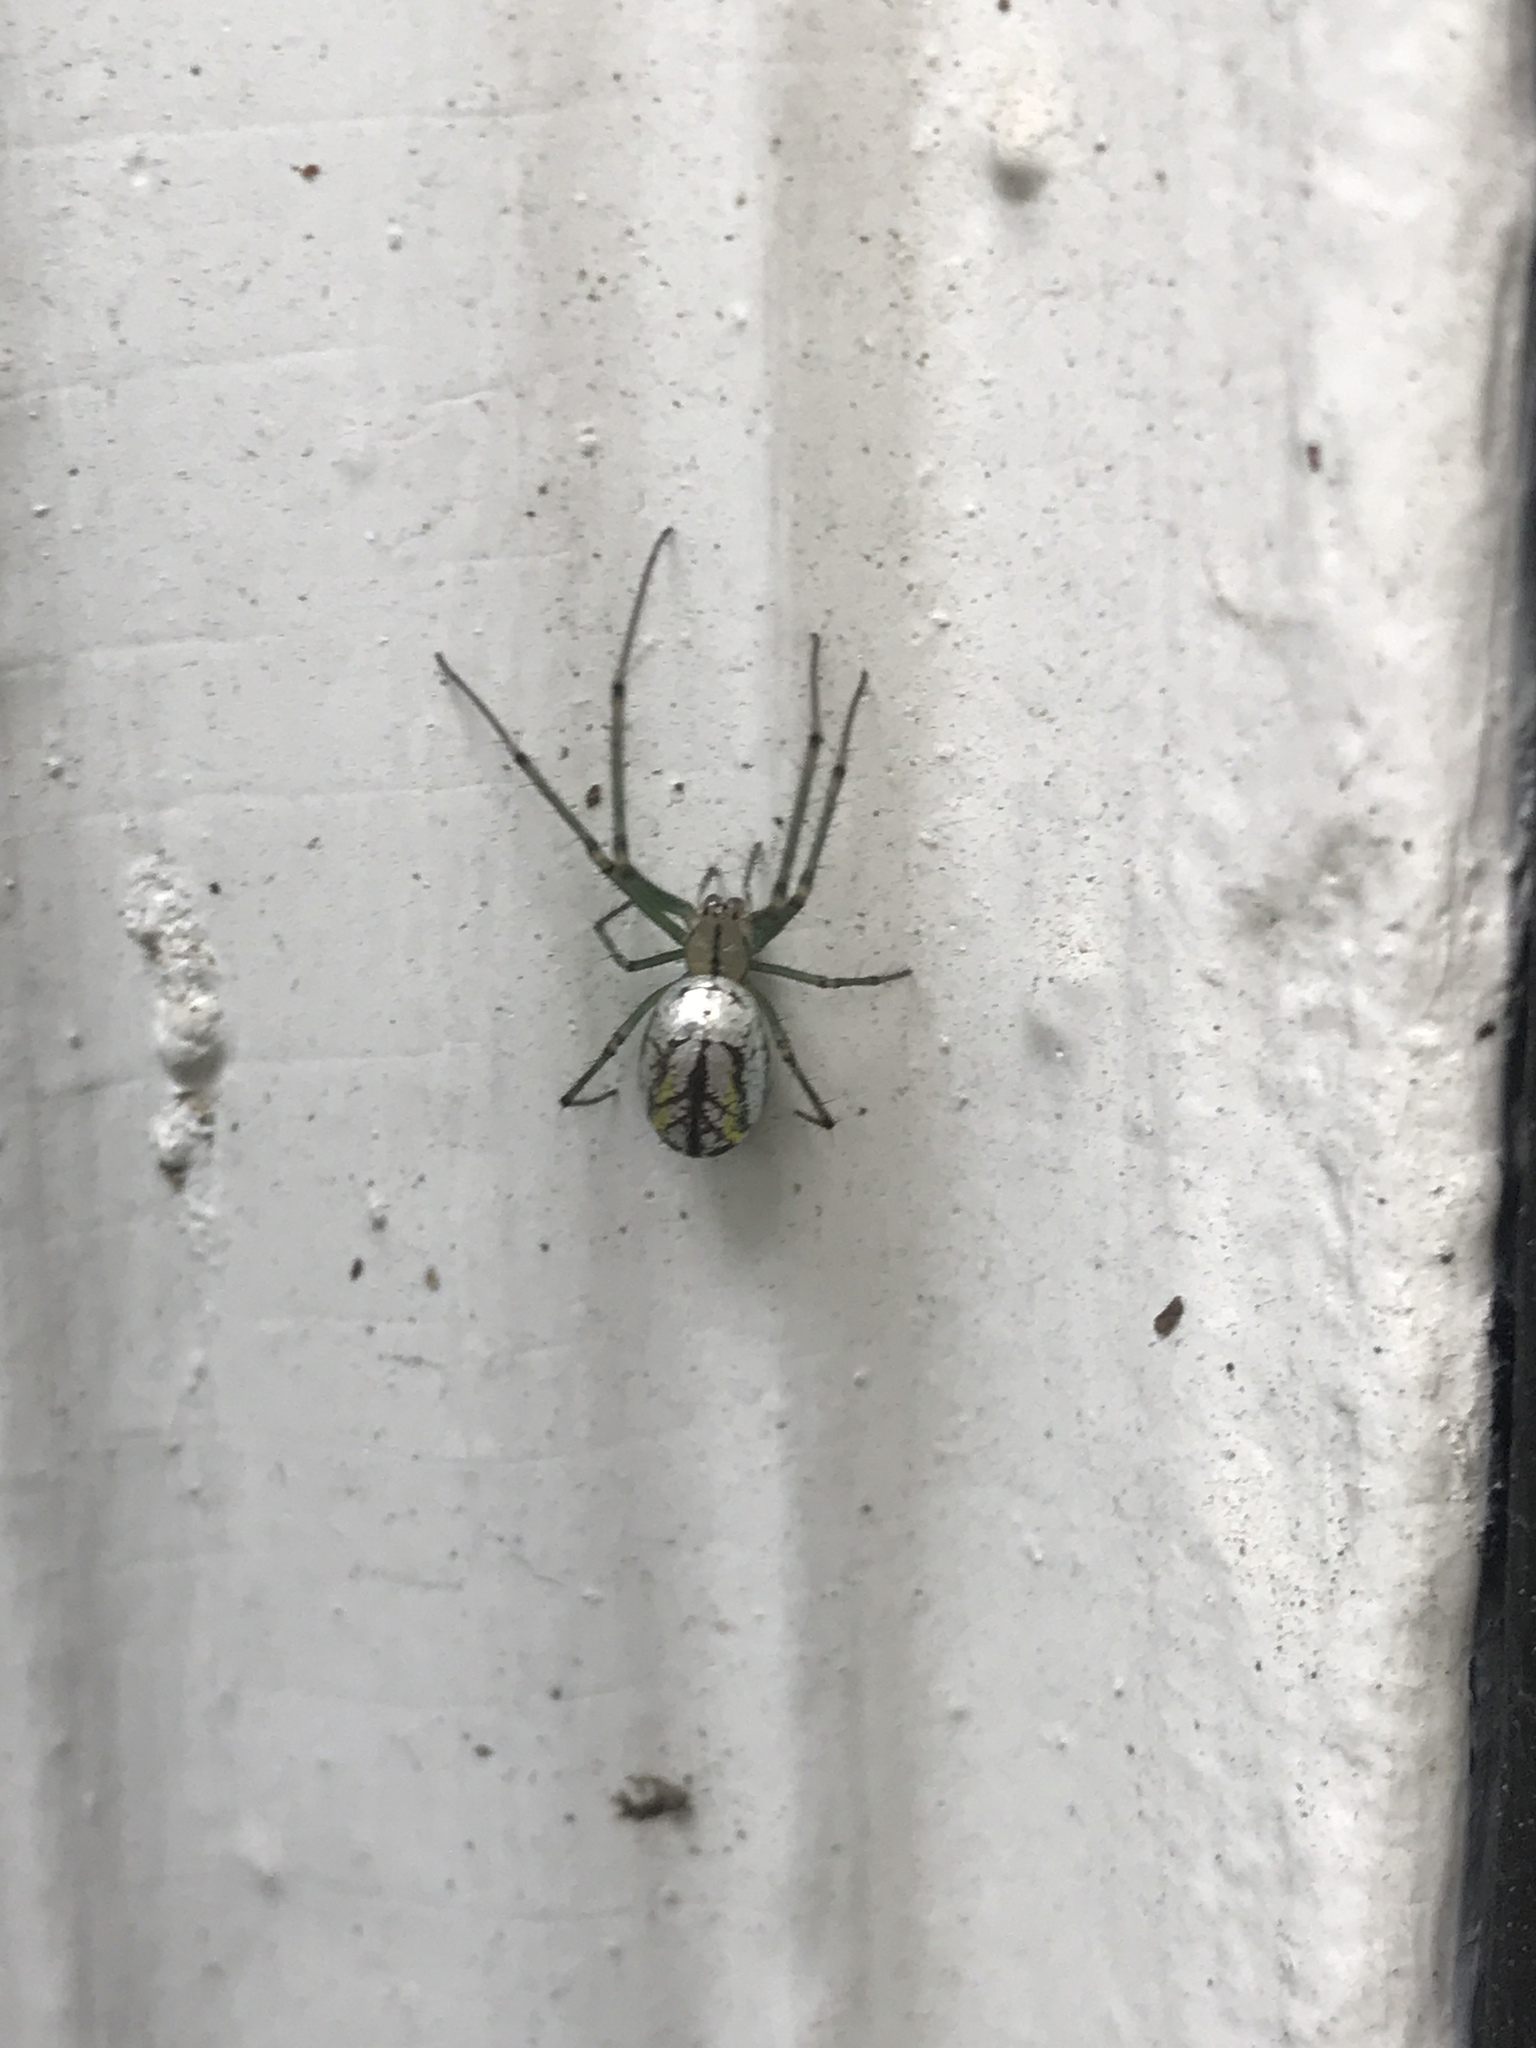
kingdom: Animalia
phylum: Arthropoda
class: Arachnida
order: Araneae
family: Tetragnathidae
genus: Leucauge
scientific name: Leucauge venusta
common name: Longjawed orb weavers
